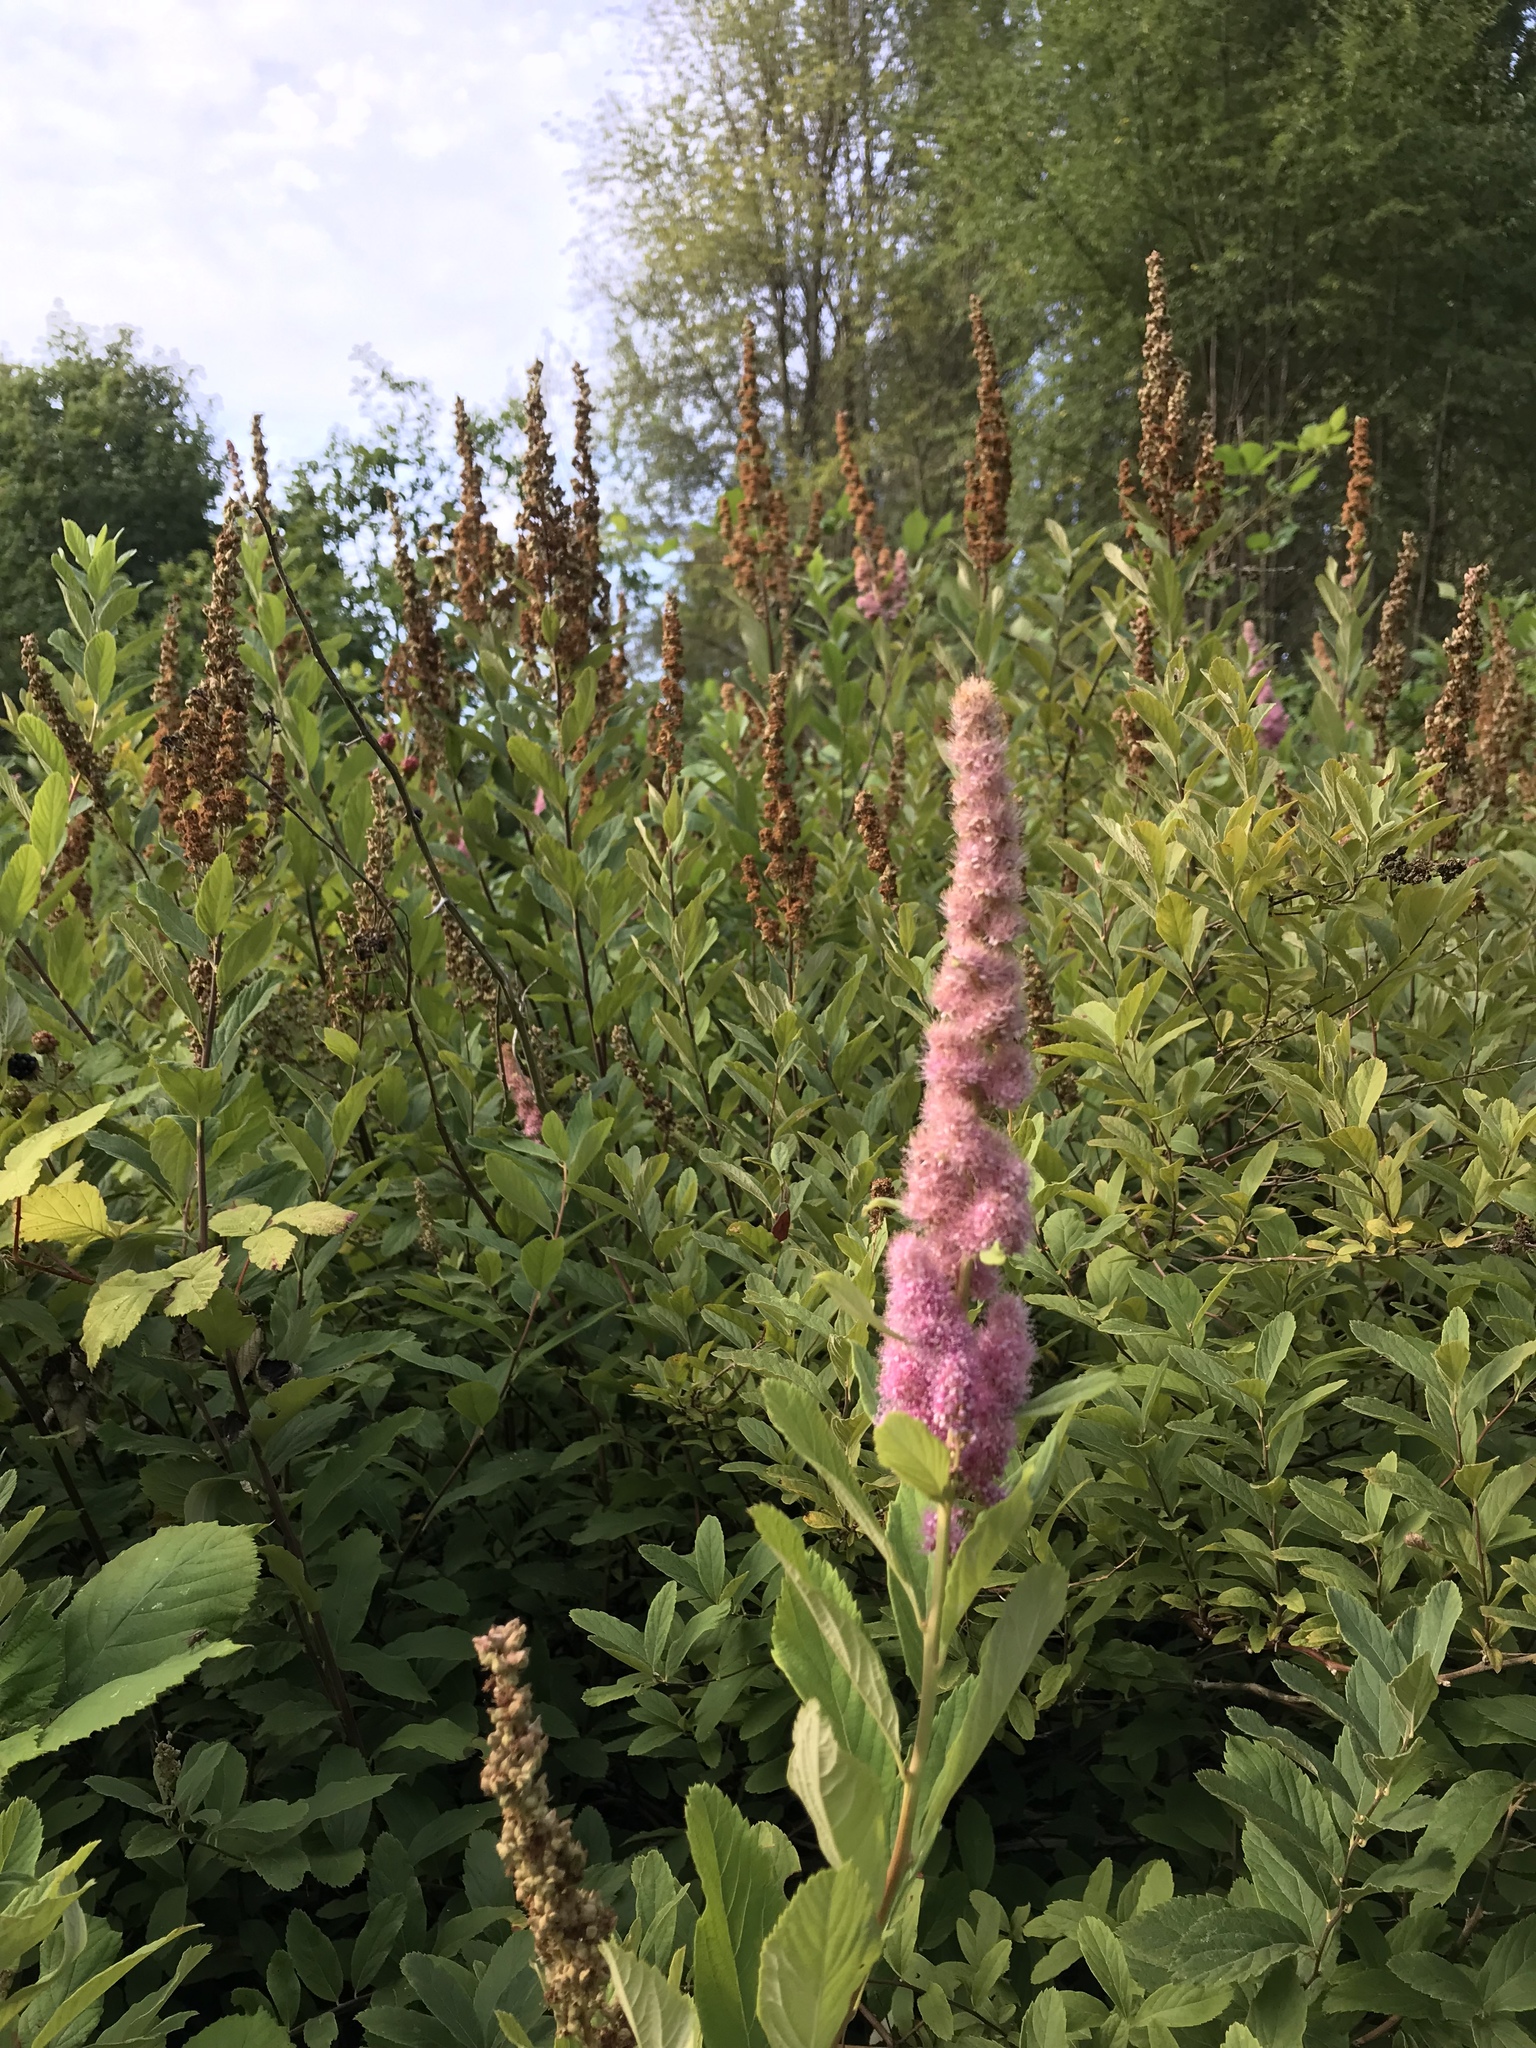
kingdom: Plantae
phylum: Tracheophyta
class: Magnoliopsida
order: Rosales
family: Rosaceae
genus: Spiraea
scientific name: Spiraea douglasii
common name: Steeplebush
